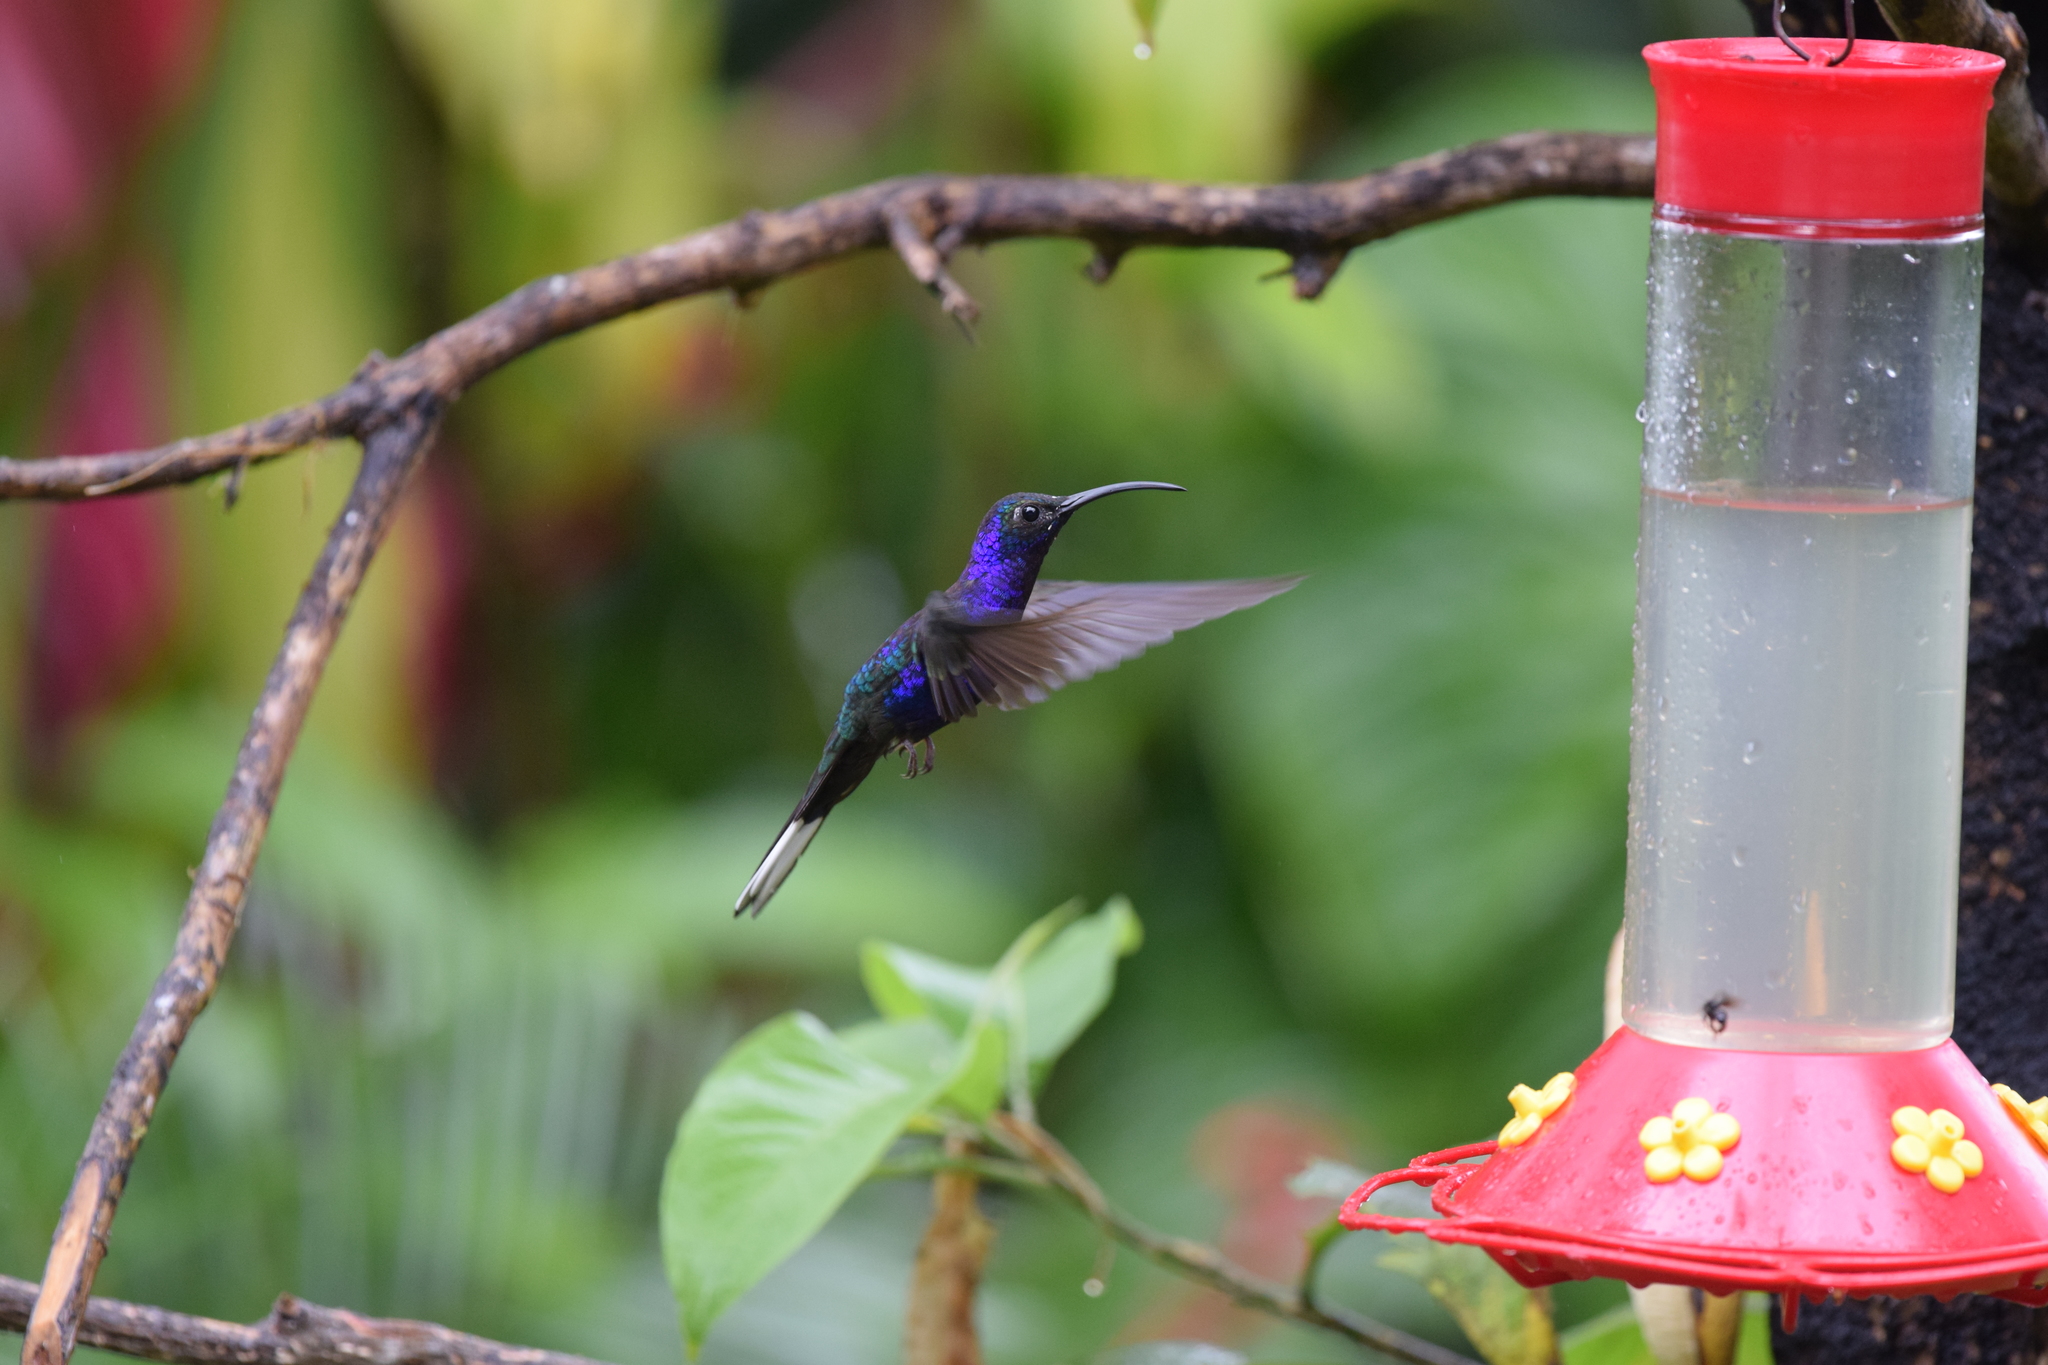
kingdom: Animalia
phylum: Chordata
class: Aves
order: Apodiformes
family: Trochilidae
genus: Campylopterus
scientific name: Campylopterus hemileucurus
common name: Violet sabrewing
